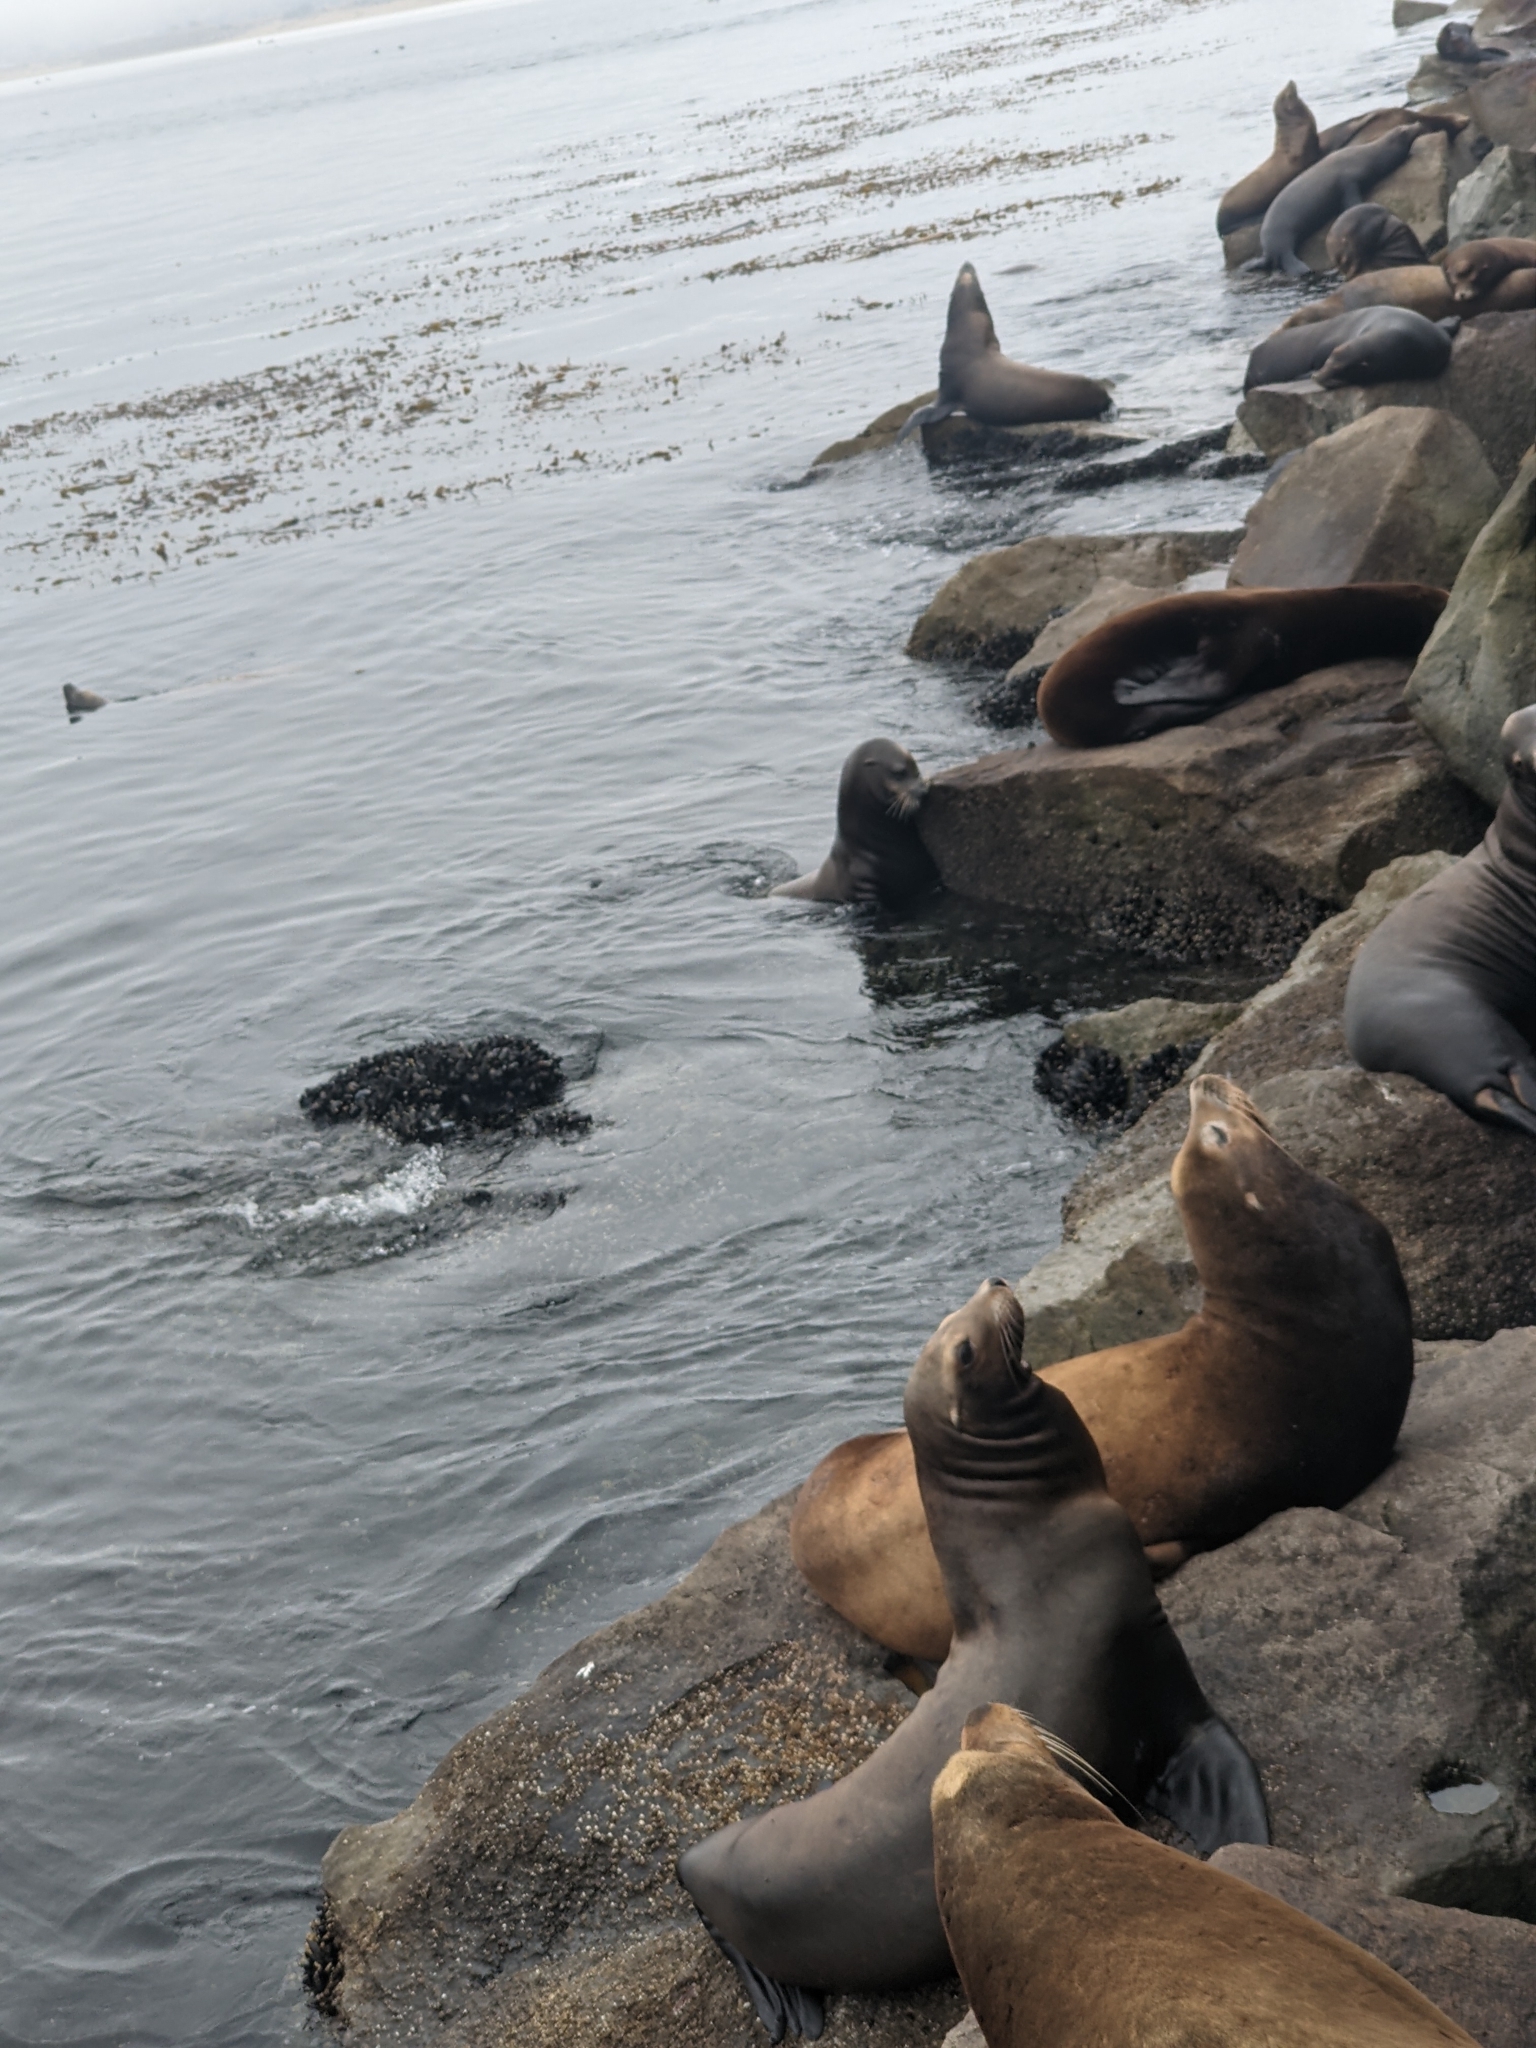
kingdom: Animalia
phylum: Chordata
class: Mammalia
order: Carnivora
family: Otariidae
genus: Zalophus
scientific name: Zalophus californianus
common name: California sea lion
